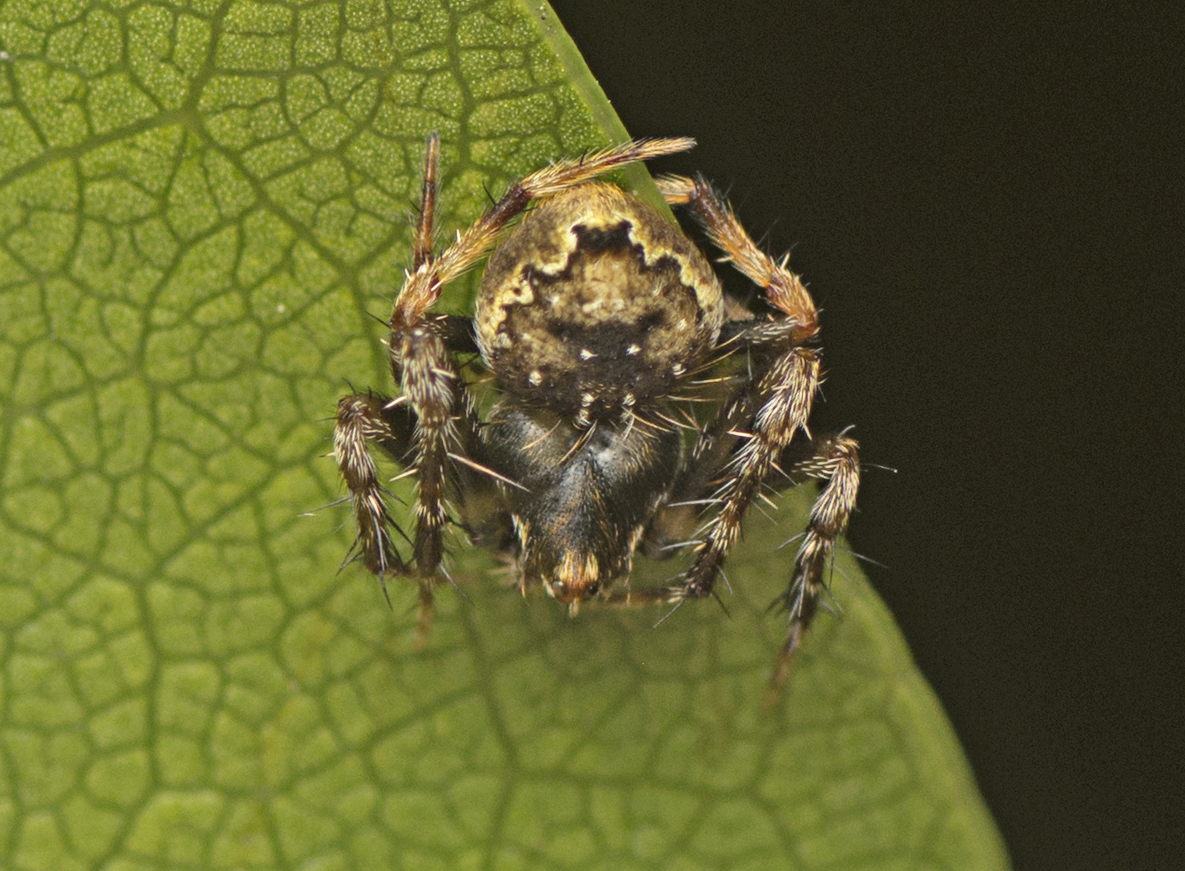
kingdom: Animalia
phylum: Arthropoda
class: Arachnida
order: Araneae
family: Araneidae
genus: Araneus
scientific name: Araneus acuminatus
